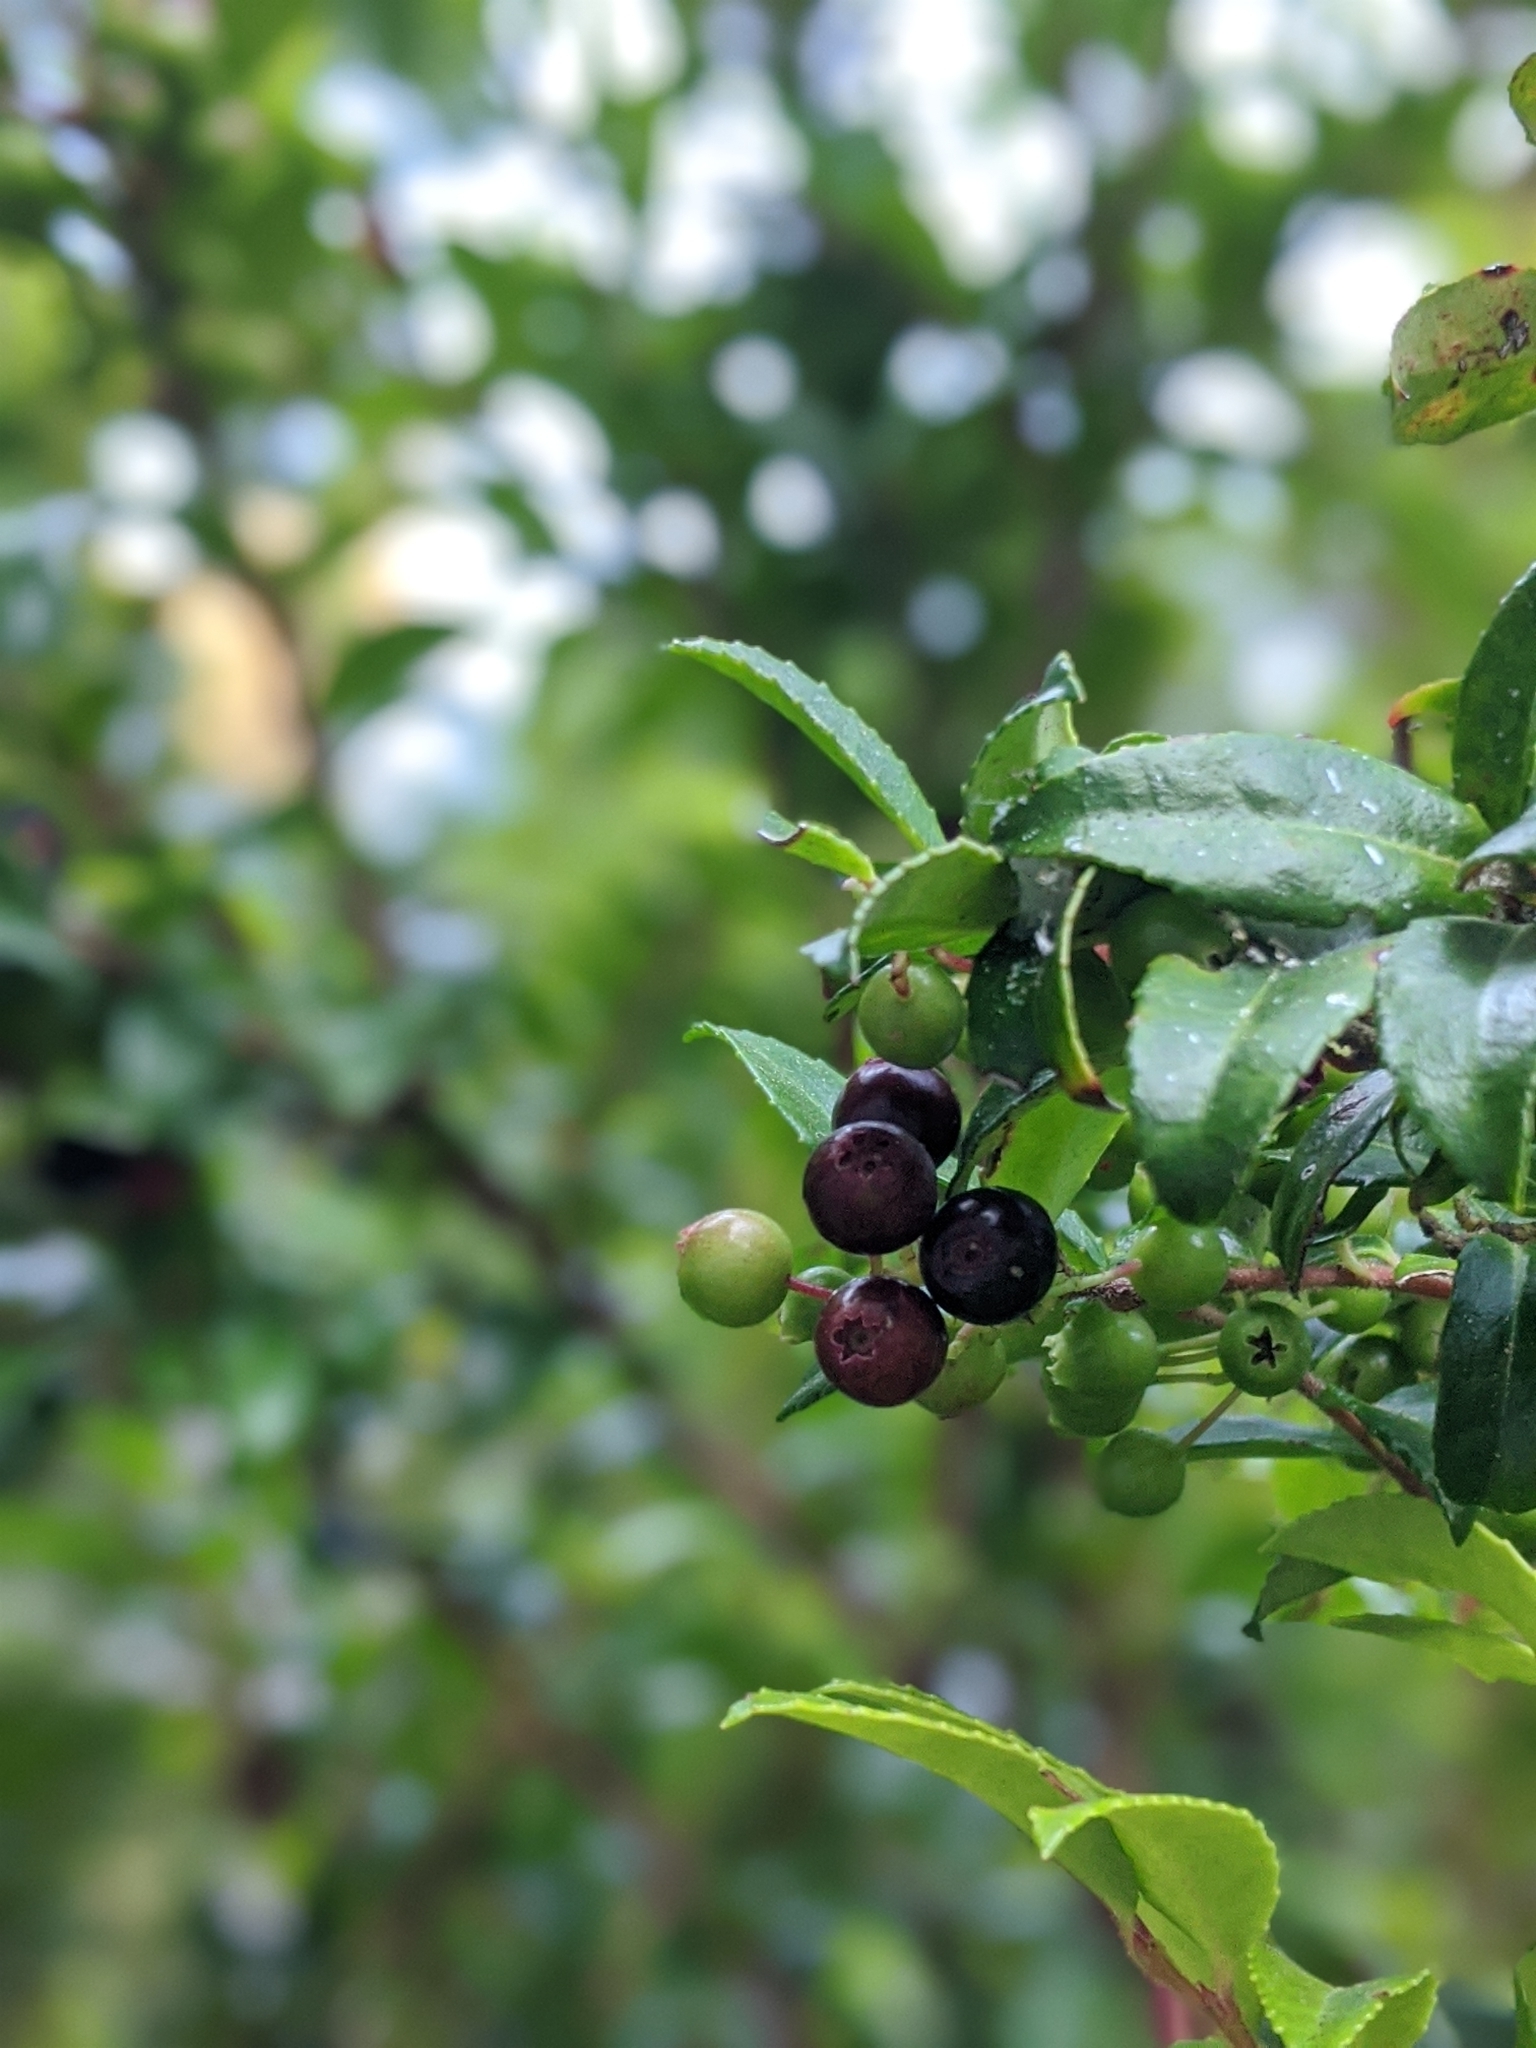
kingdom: Plantae
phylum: Tracheophyta
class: Magnoliopsida
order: Ericales
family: Ericaceae
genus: Vaccinium
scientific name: Vaccinium ovatum
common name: California-huckleberry
